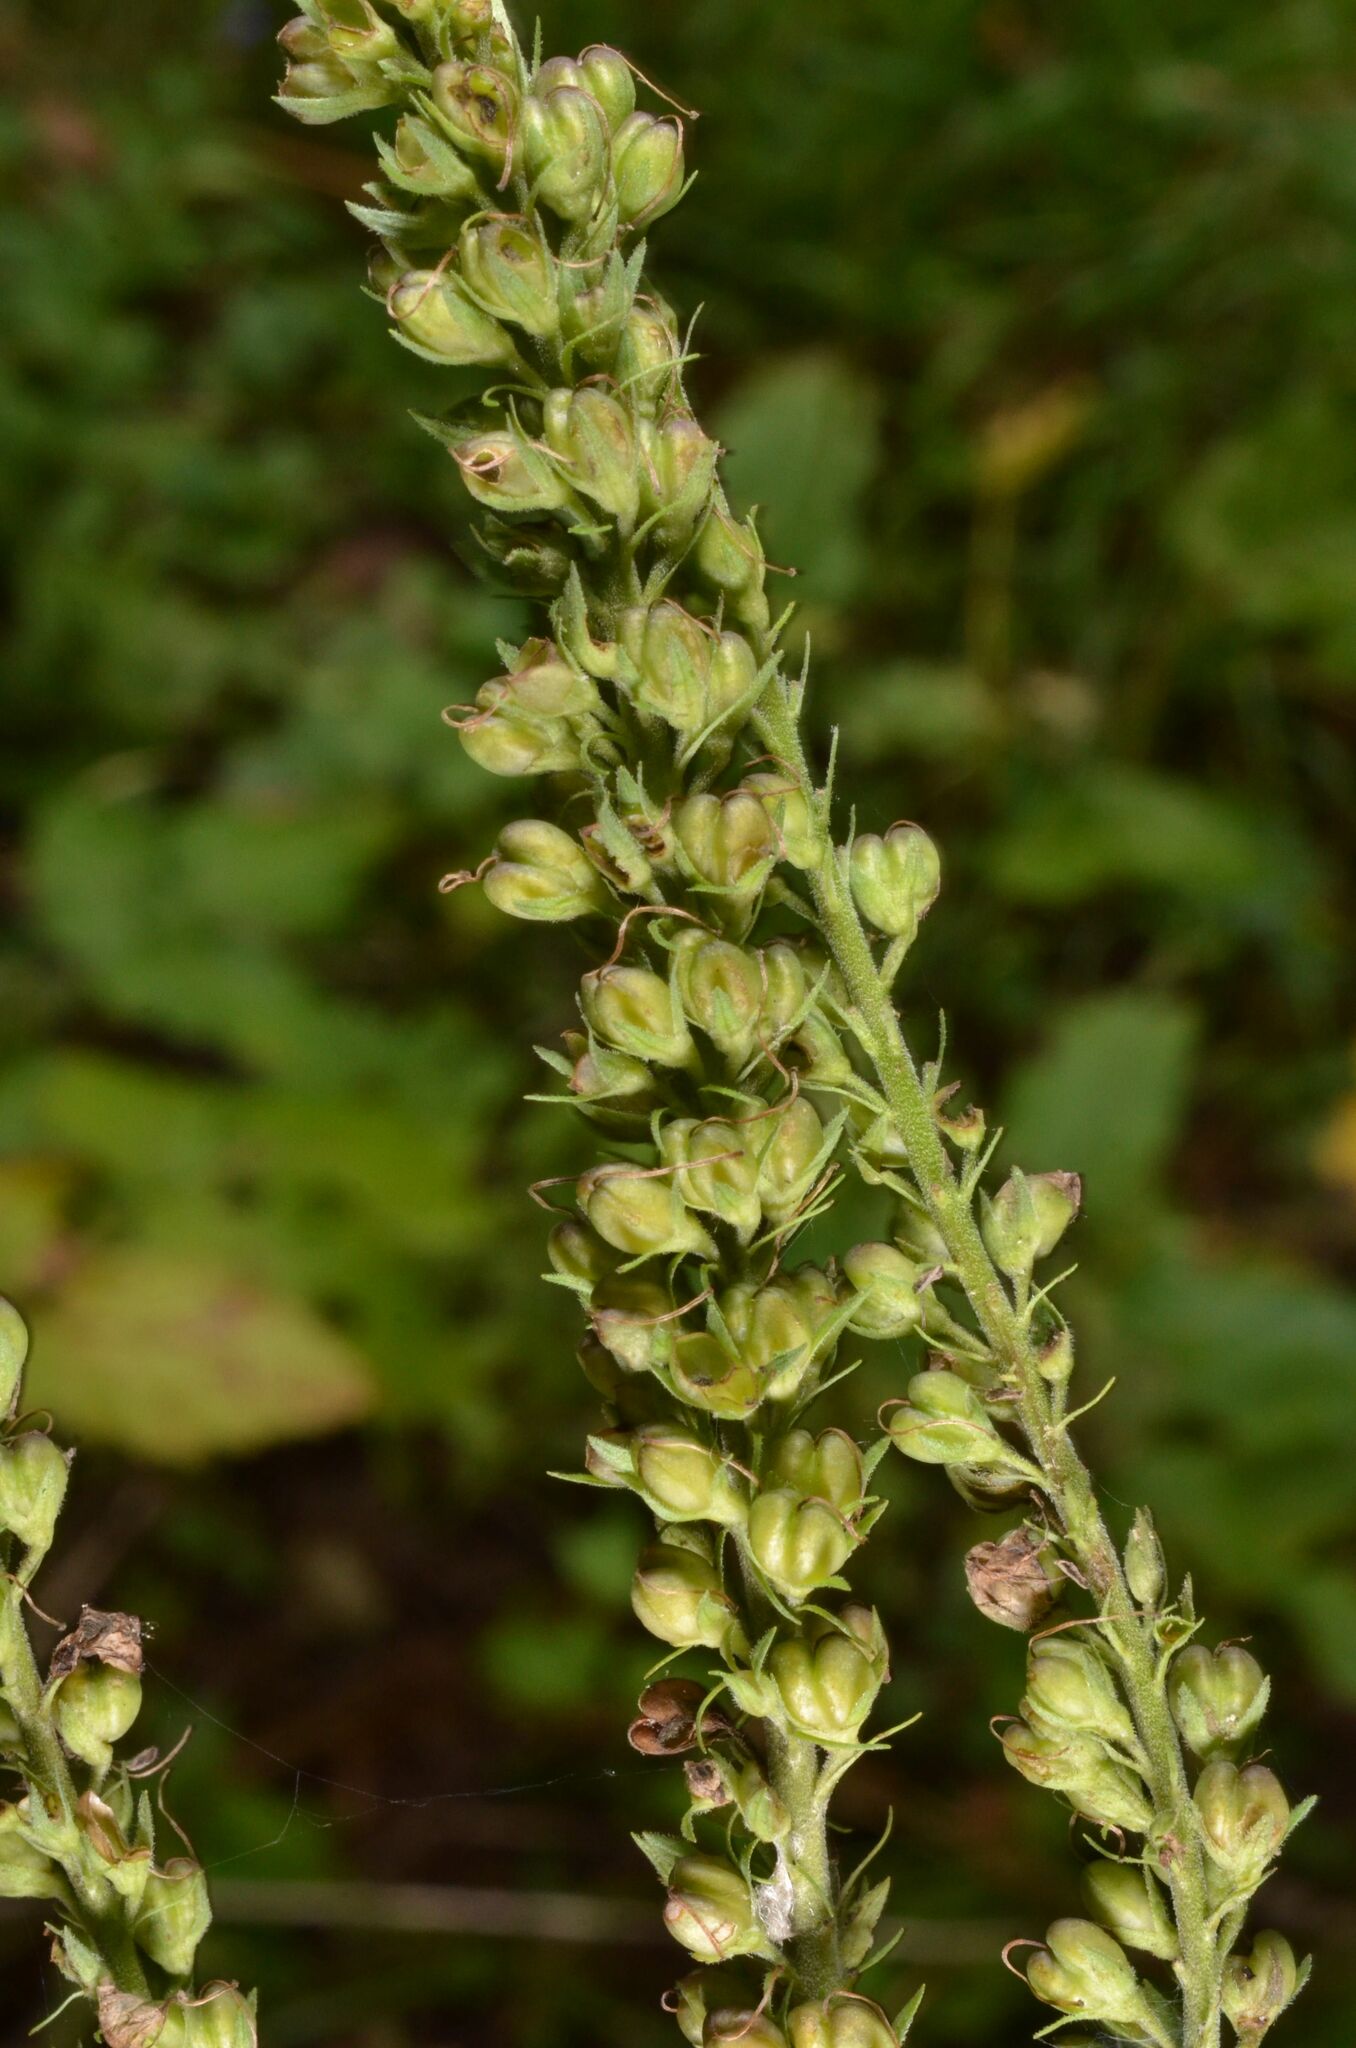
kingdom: Plantae
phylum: Tracheophyta
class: Magnoliopsida
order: Lamiales
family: Plantaginaceae
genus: Veronica
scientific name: Veronica longifolia
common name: Garden speedwell
